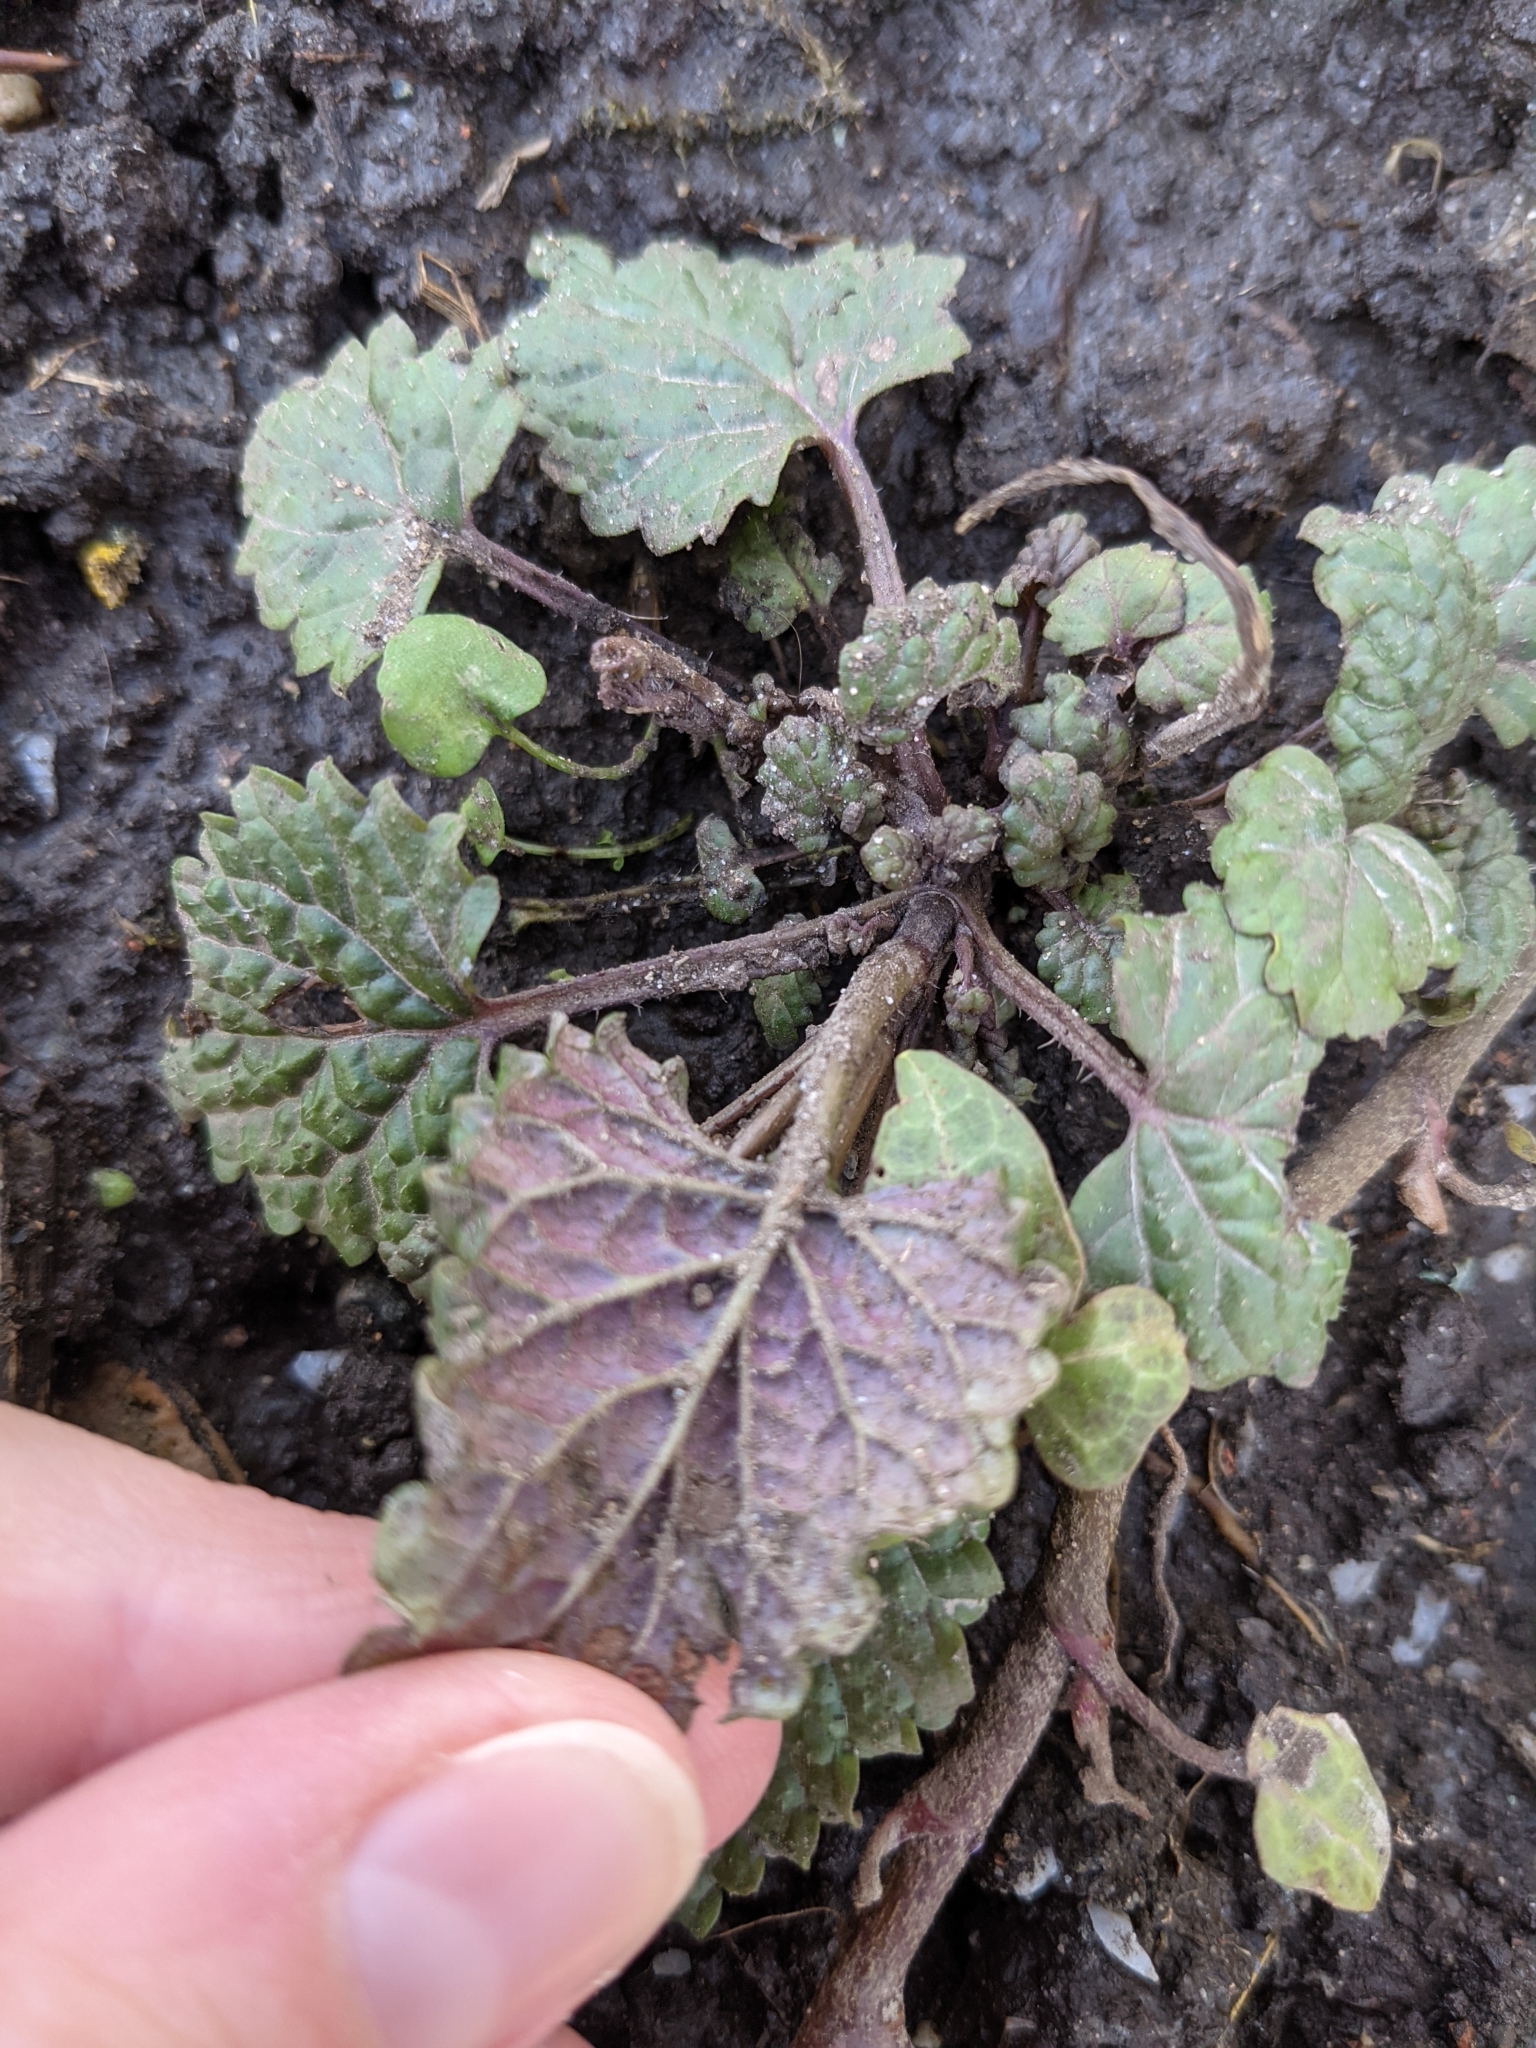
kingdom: Plantae
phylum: Tracheophyta
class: Magnoliopsida
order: Lamiales
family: Lamiaceae
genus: Melissa
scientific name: Melissa officinalis
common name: Balm
